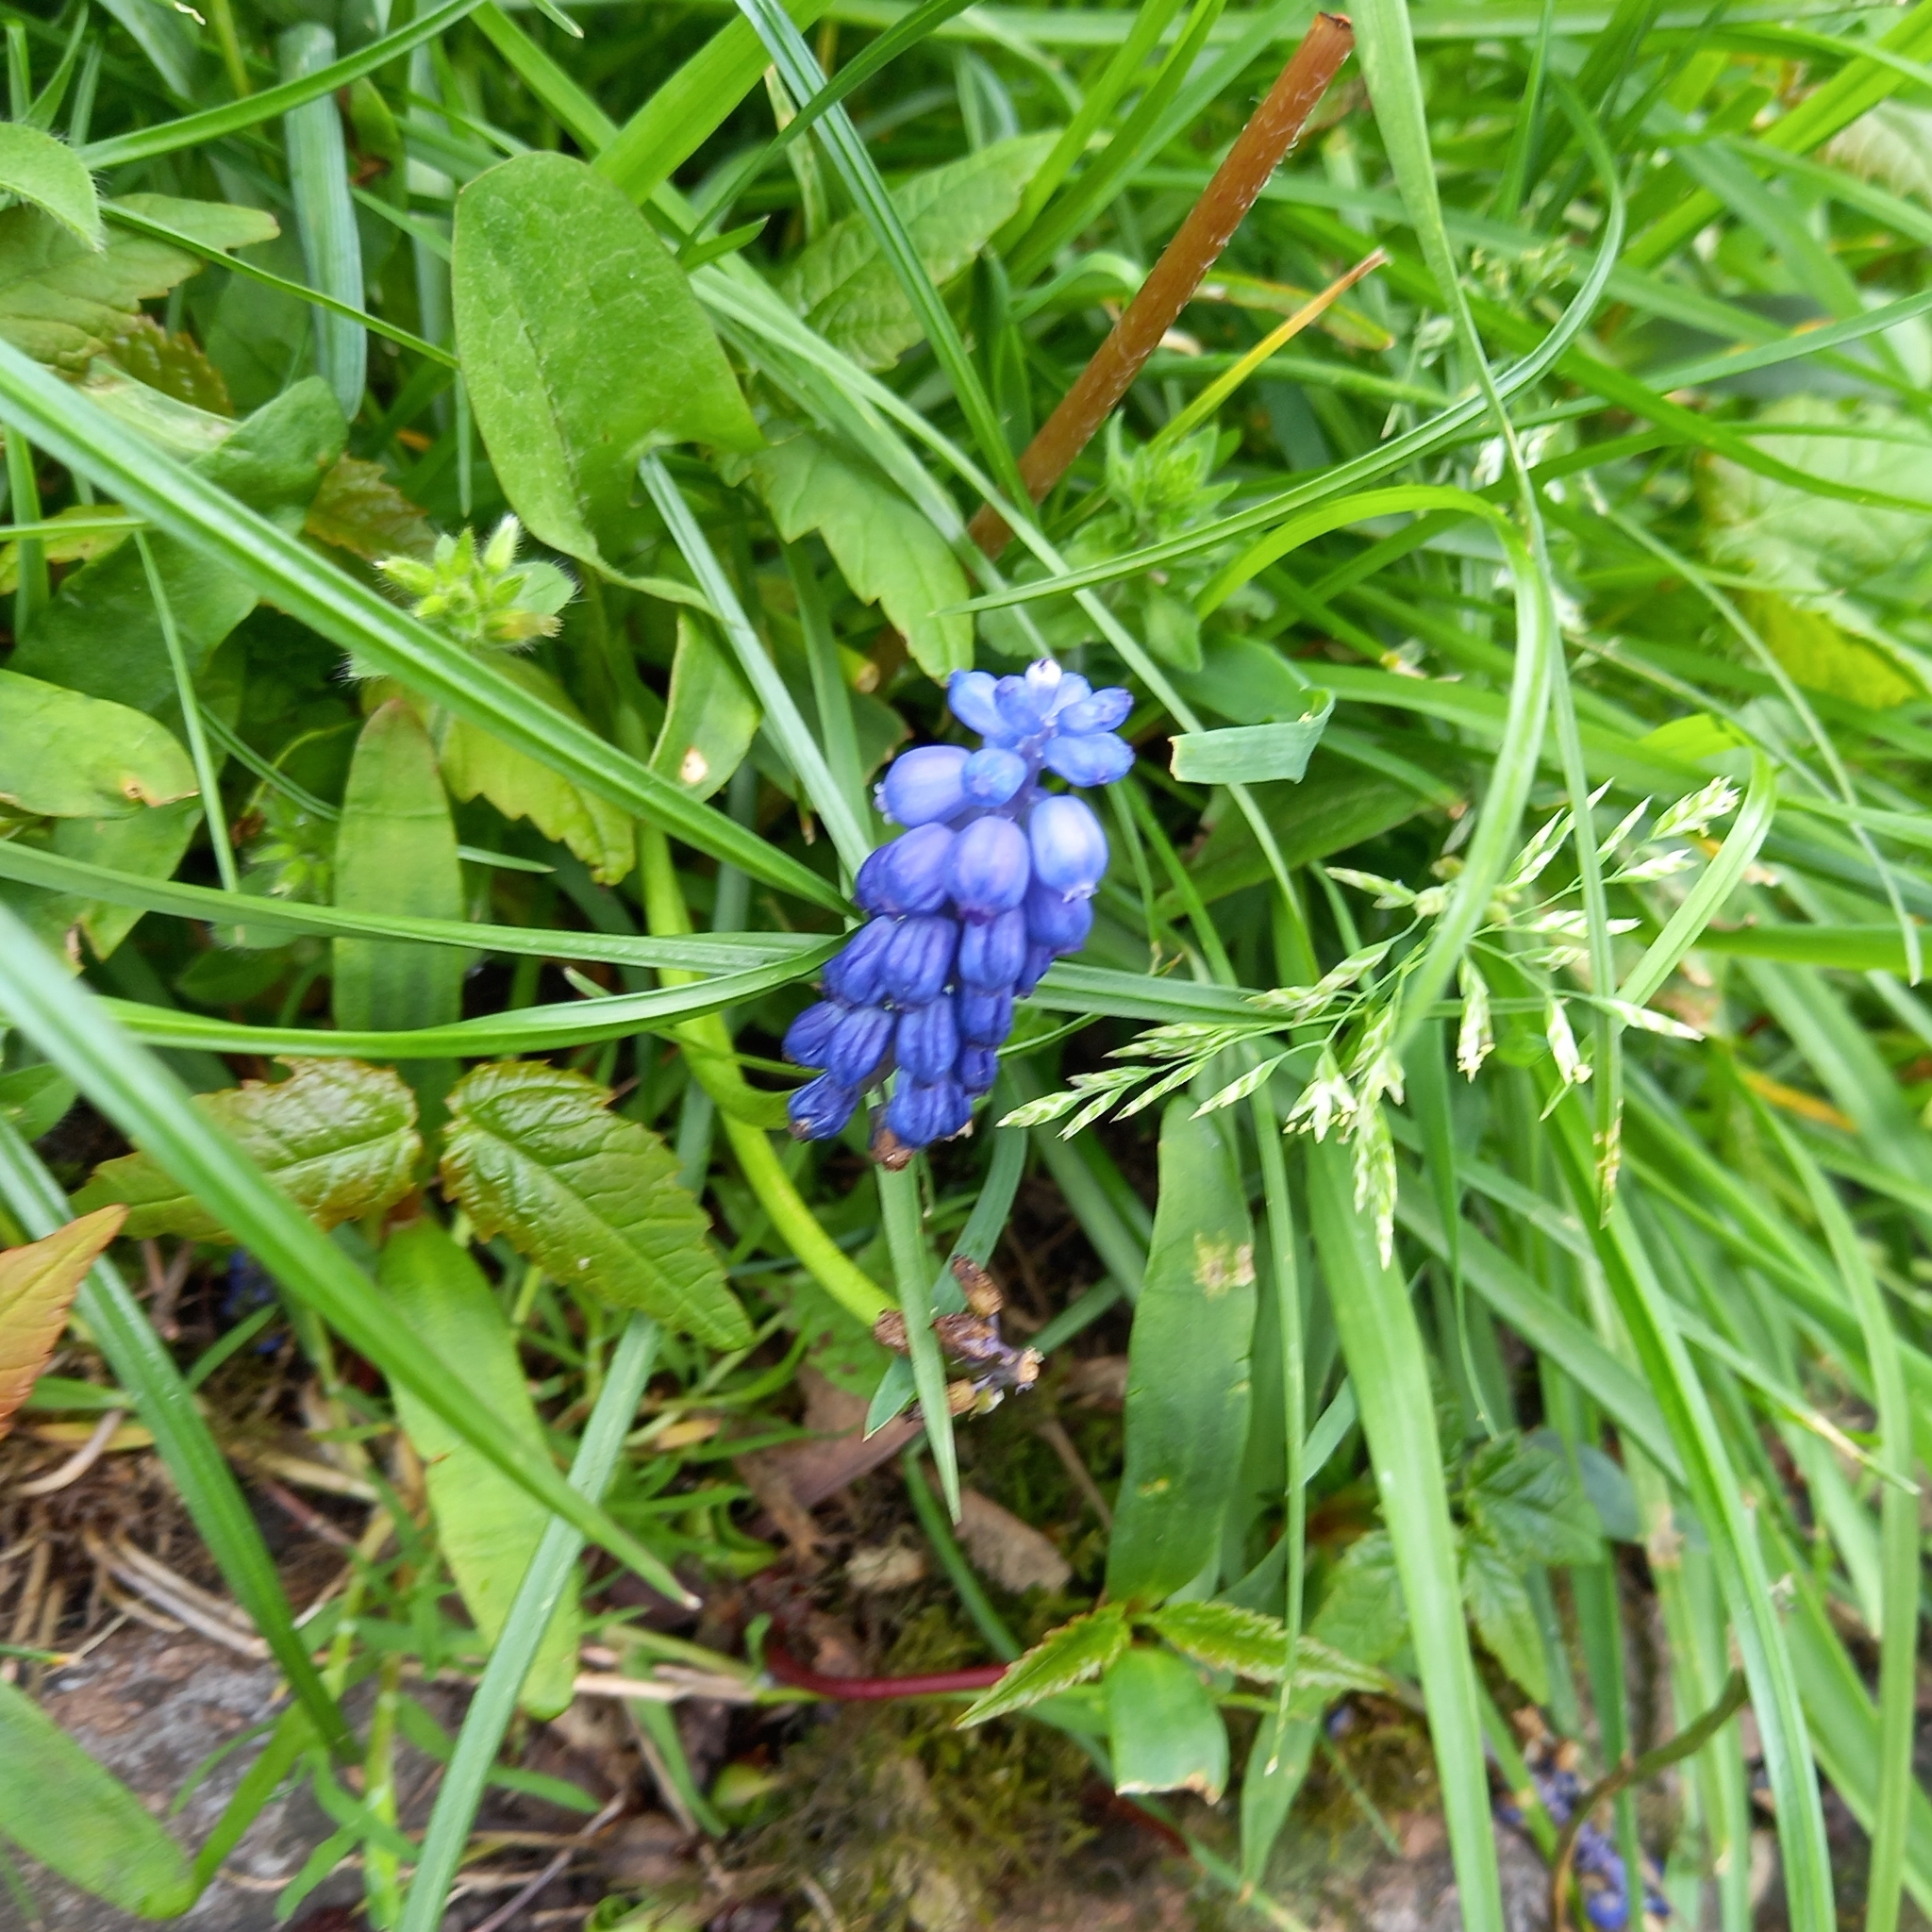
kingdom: Plantae
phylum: Tracheophyta
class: Liliopsida
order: Asparagales
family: Asparagaceae
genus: Muscari
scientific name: Muscari armeniacum
